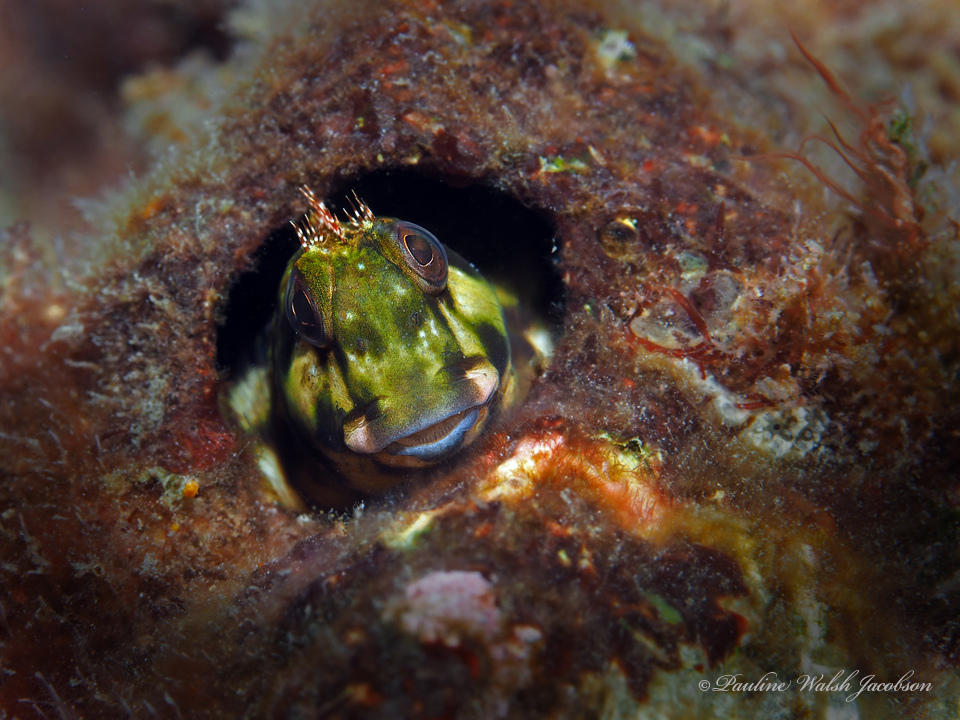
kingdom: Animalia
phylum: Chordata
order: Perciformes
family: Blenniidae
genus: Scartella
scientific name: Scartella cristata
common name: Molly miller
